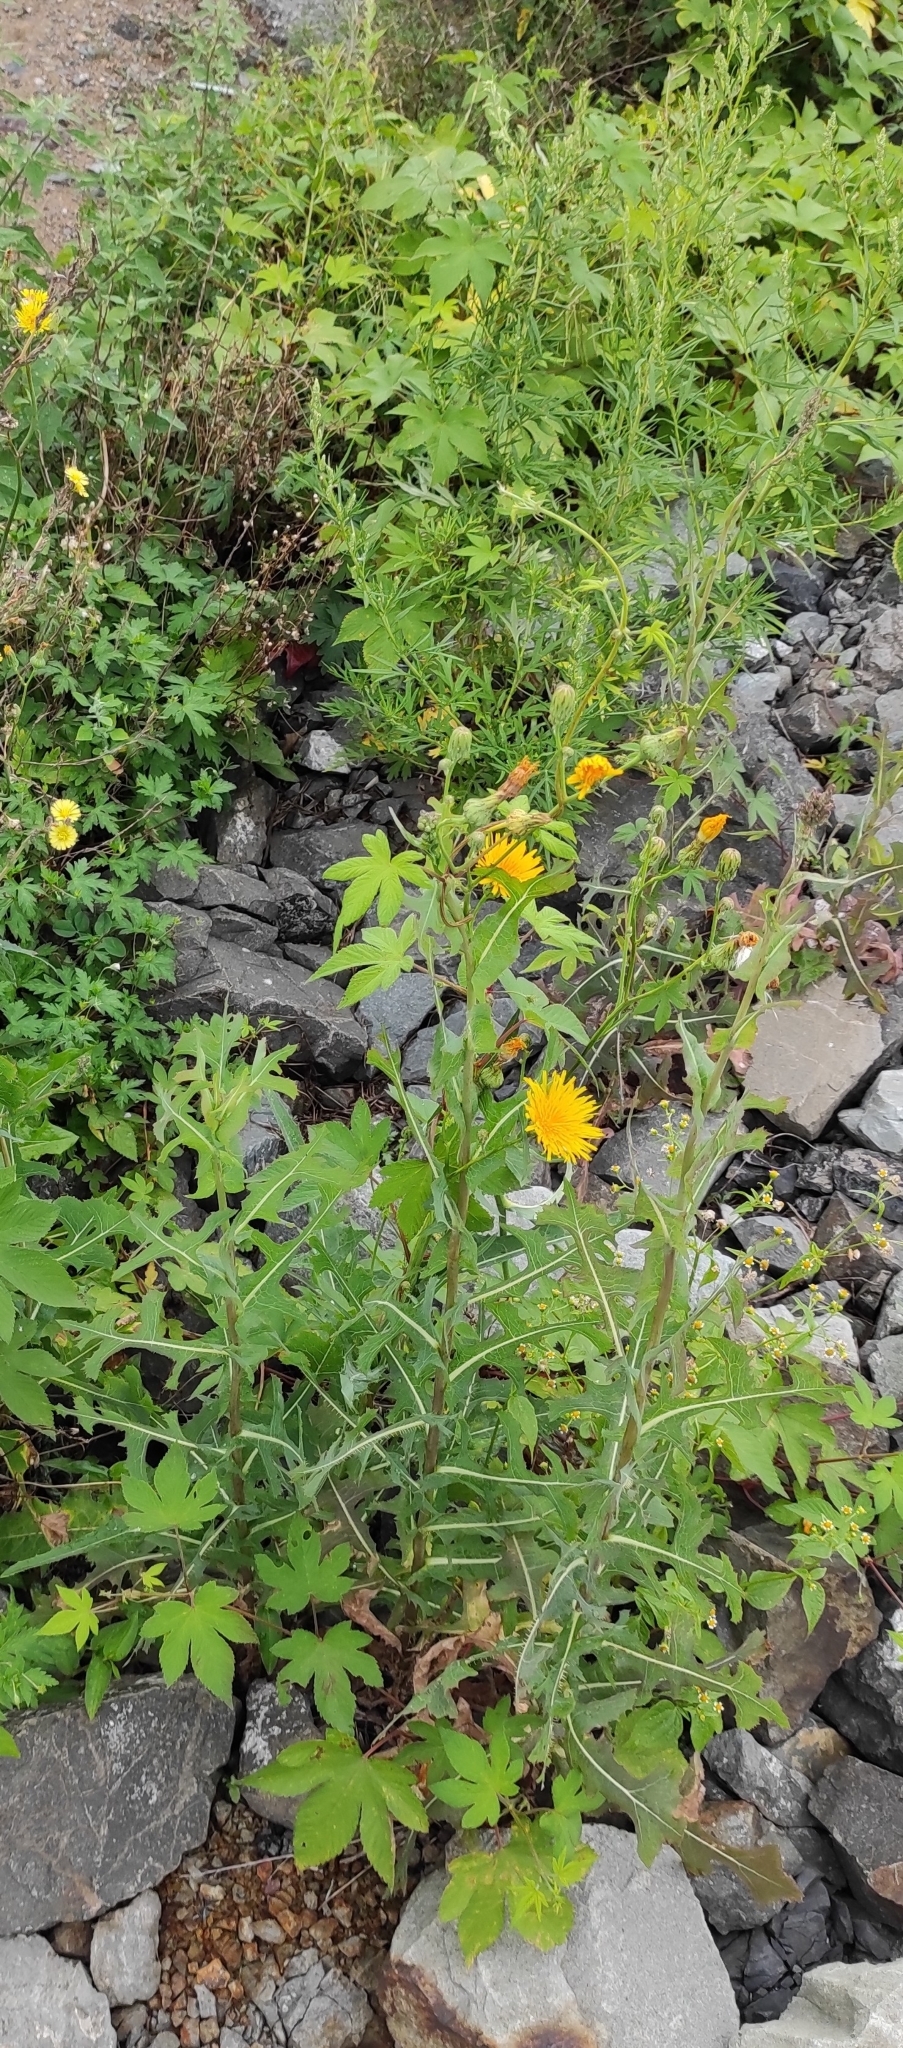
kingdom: Plantae
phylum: Tracheophyta
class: Magnoliopsida
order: Asterales
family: Asteraceae
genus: Sonchus
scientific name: Sonchus arvensis
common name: Perennial sow-thistle
